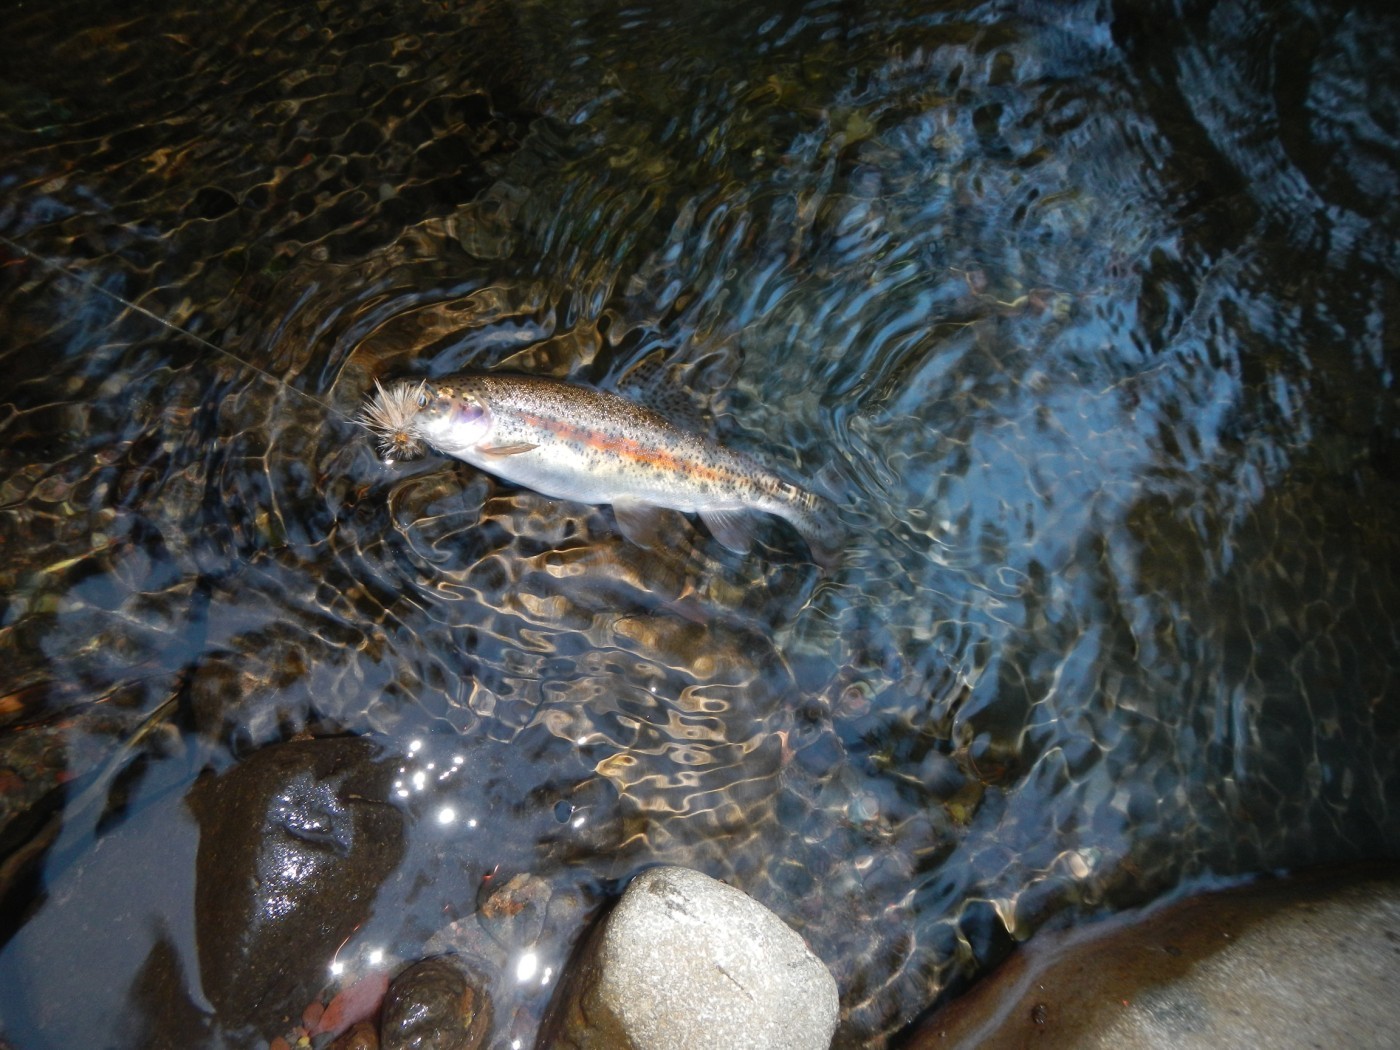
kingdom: Animalia
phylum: Chordata
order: Salmoniformes
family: Salmonidae
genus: Oncorhynchus
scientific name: Oncorhynchus clarkii
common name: Cutthroat trout
